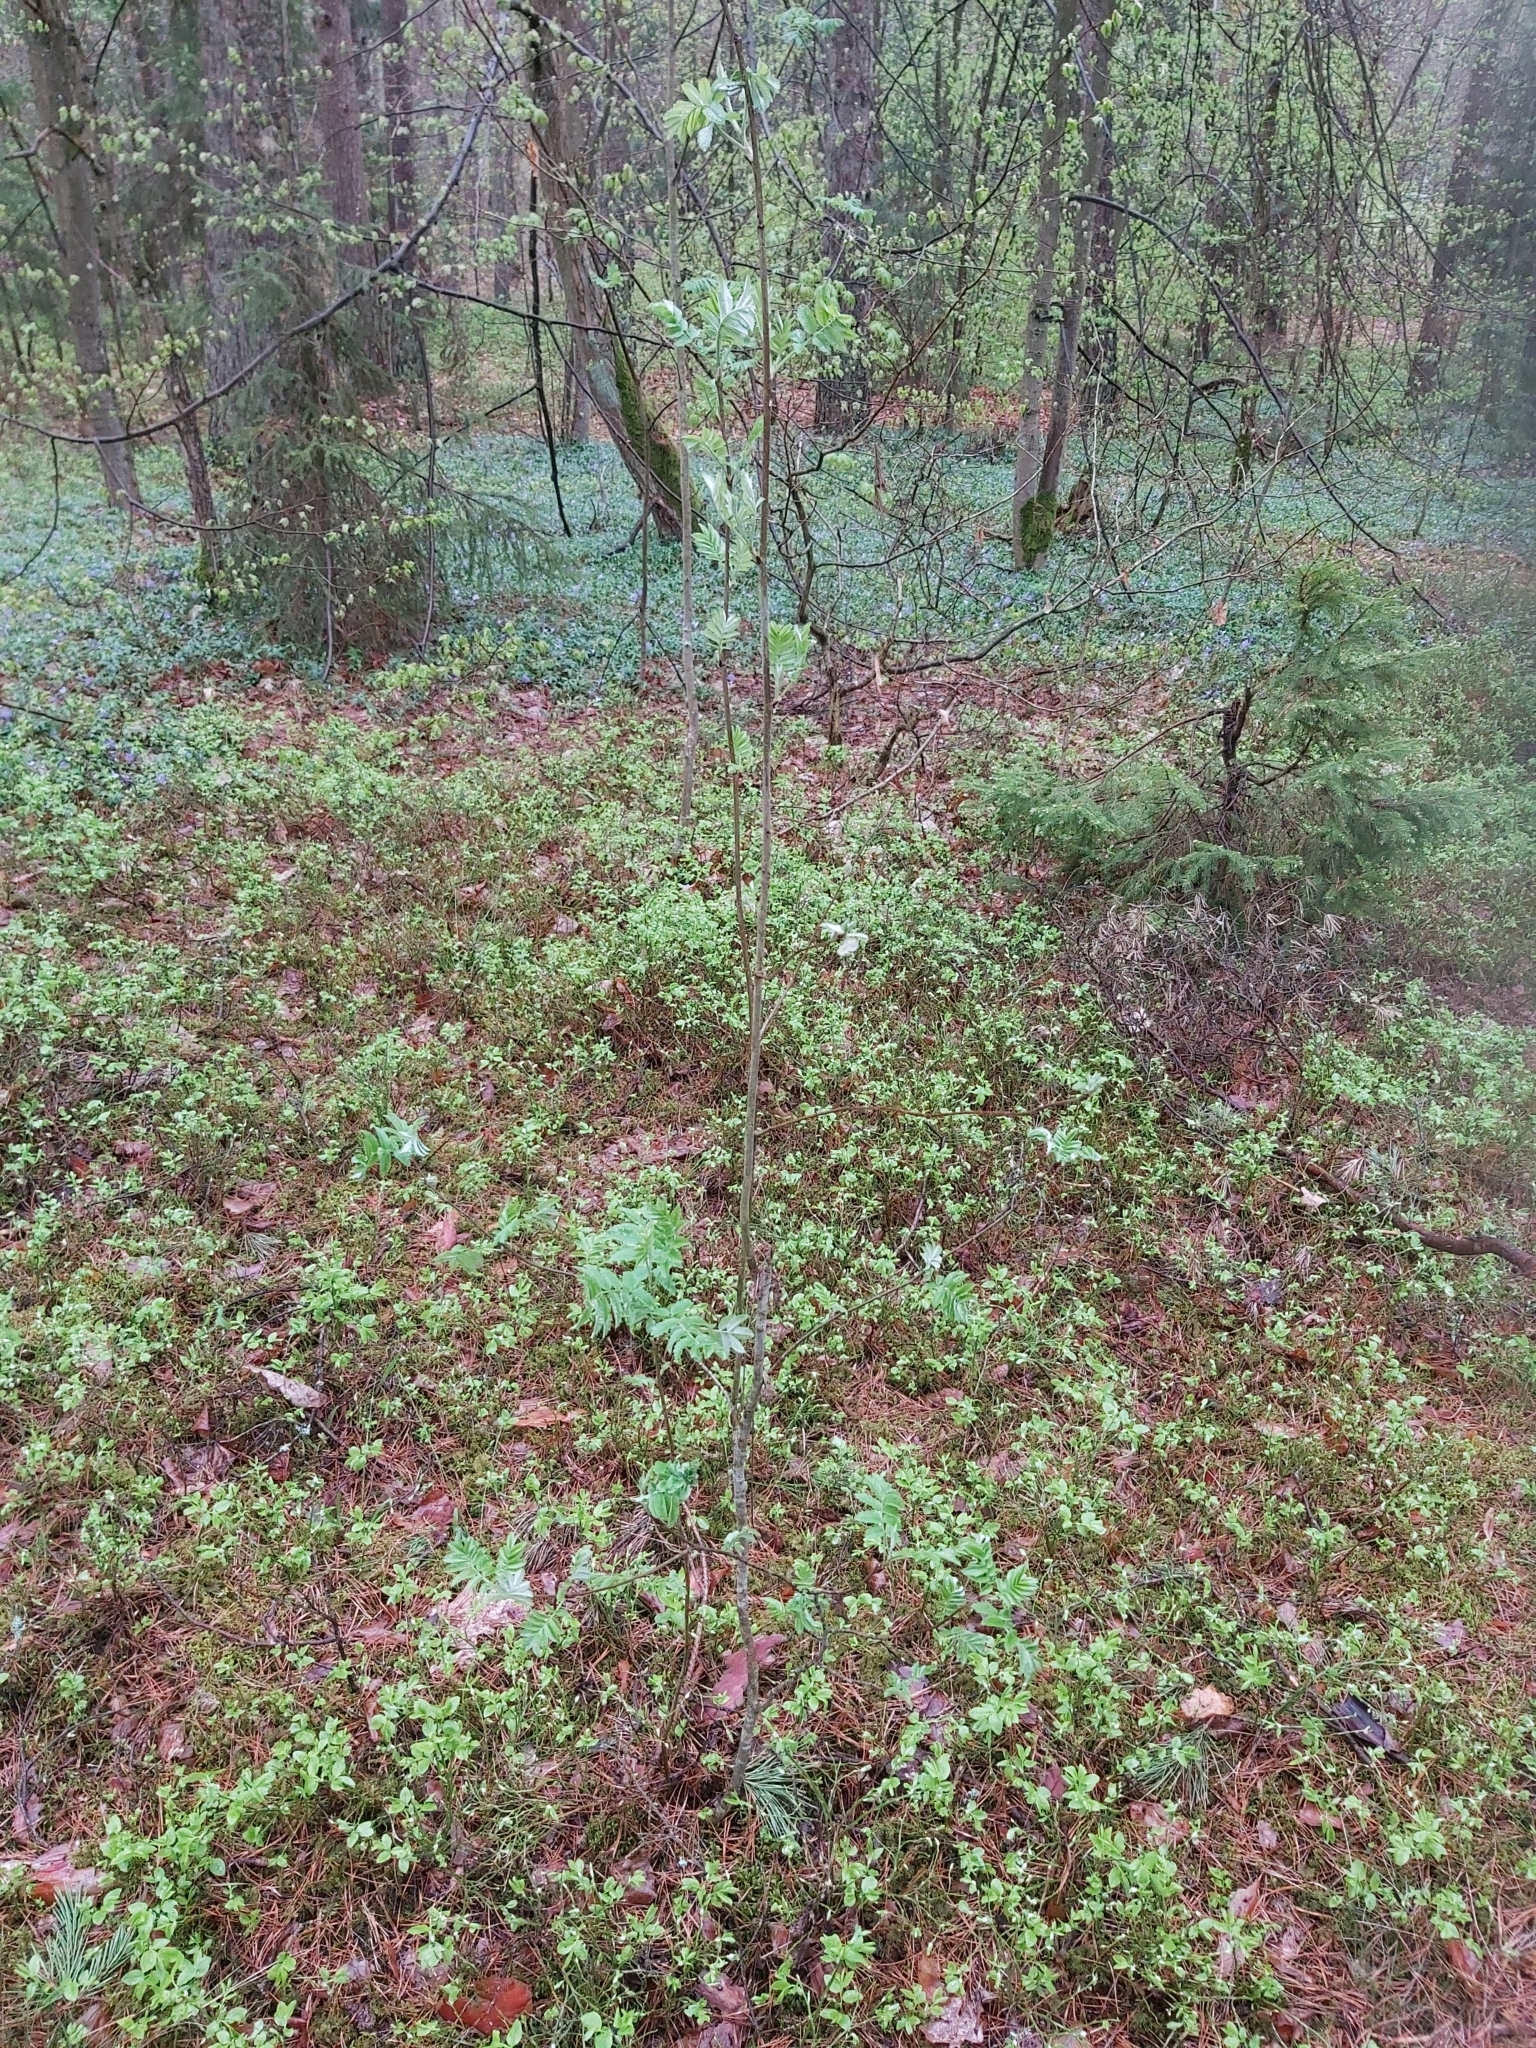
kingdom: Plantae
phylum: Tracheophyta
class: Magnoliopsida
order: Rosales
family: Rosaceae
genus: Sorbus
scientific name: Sorbus aucuparia
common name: Rowan
